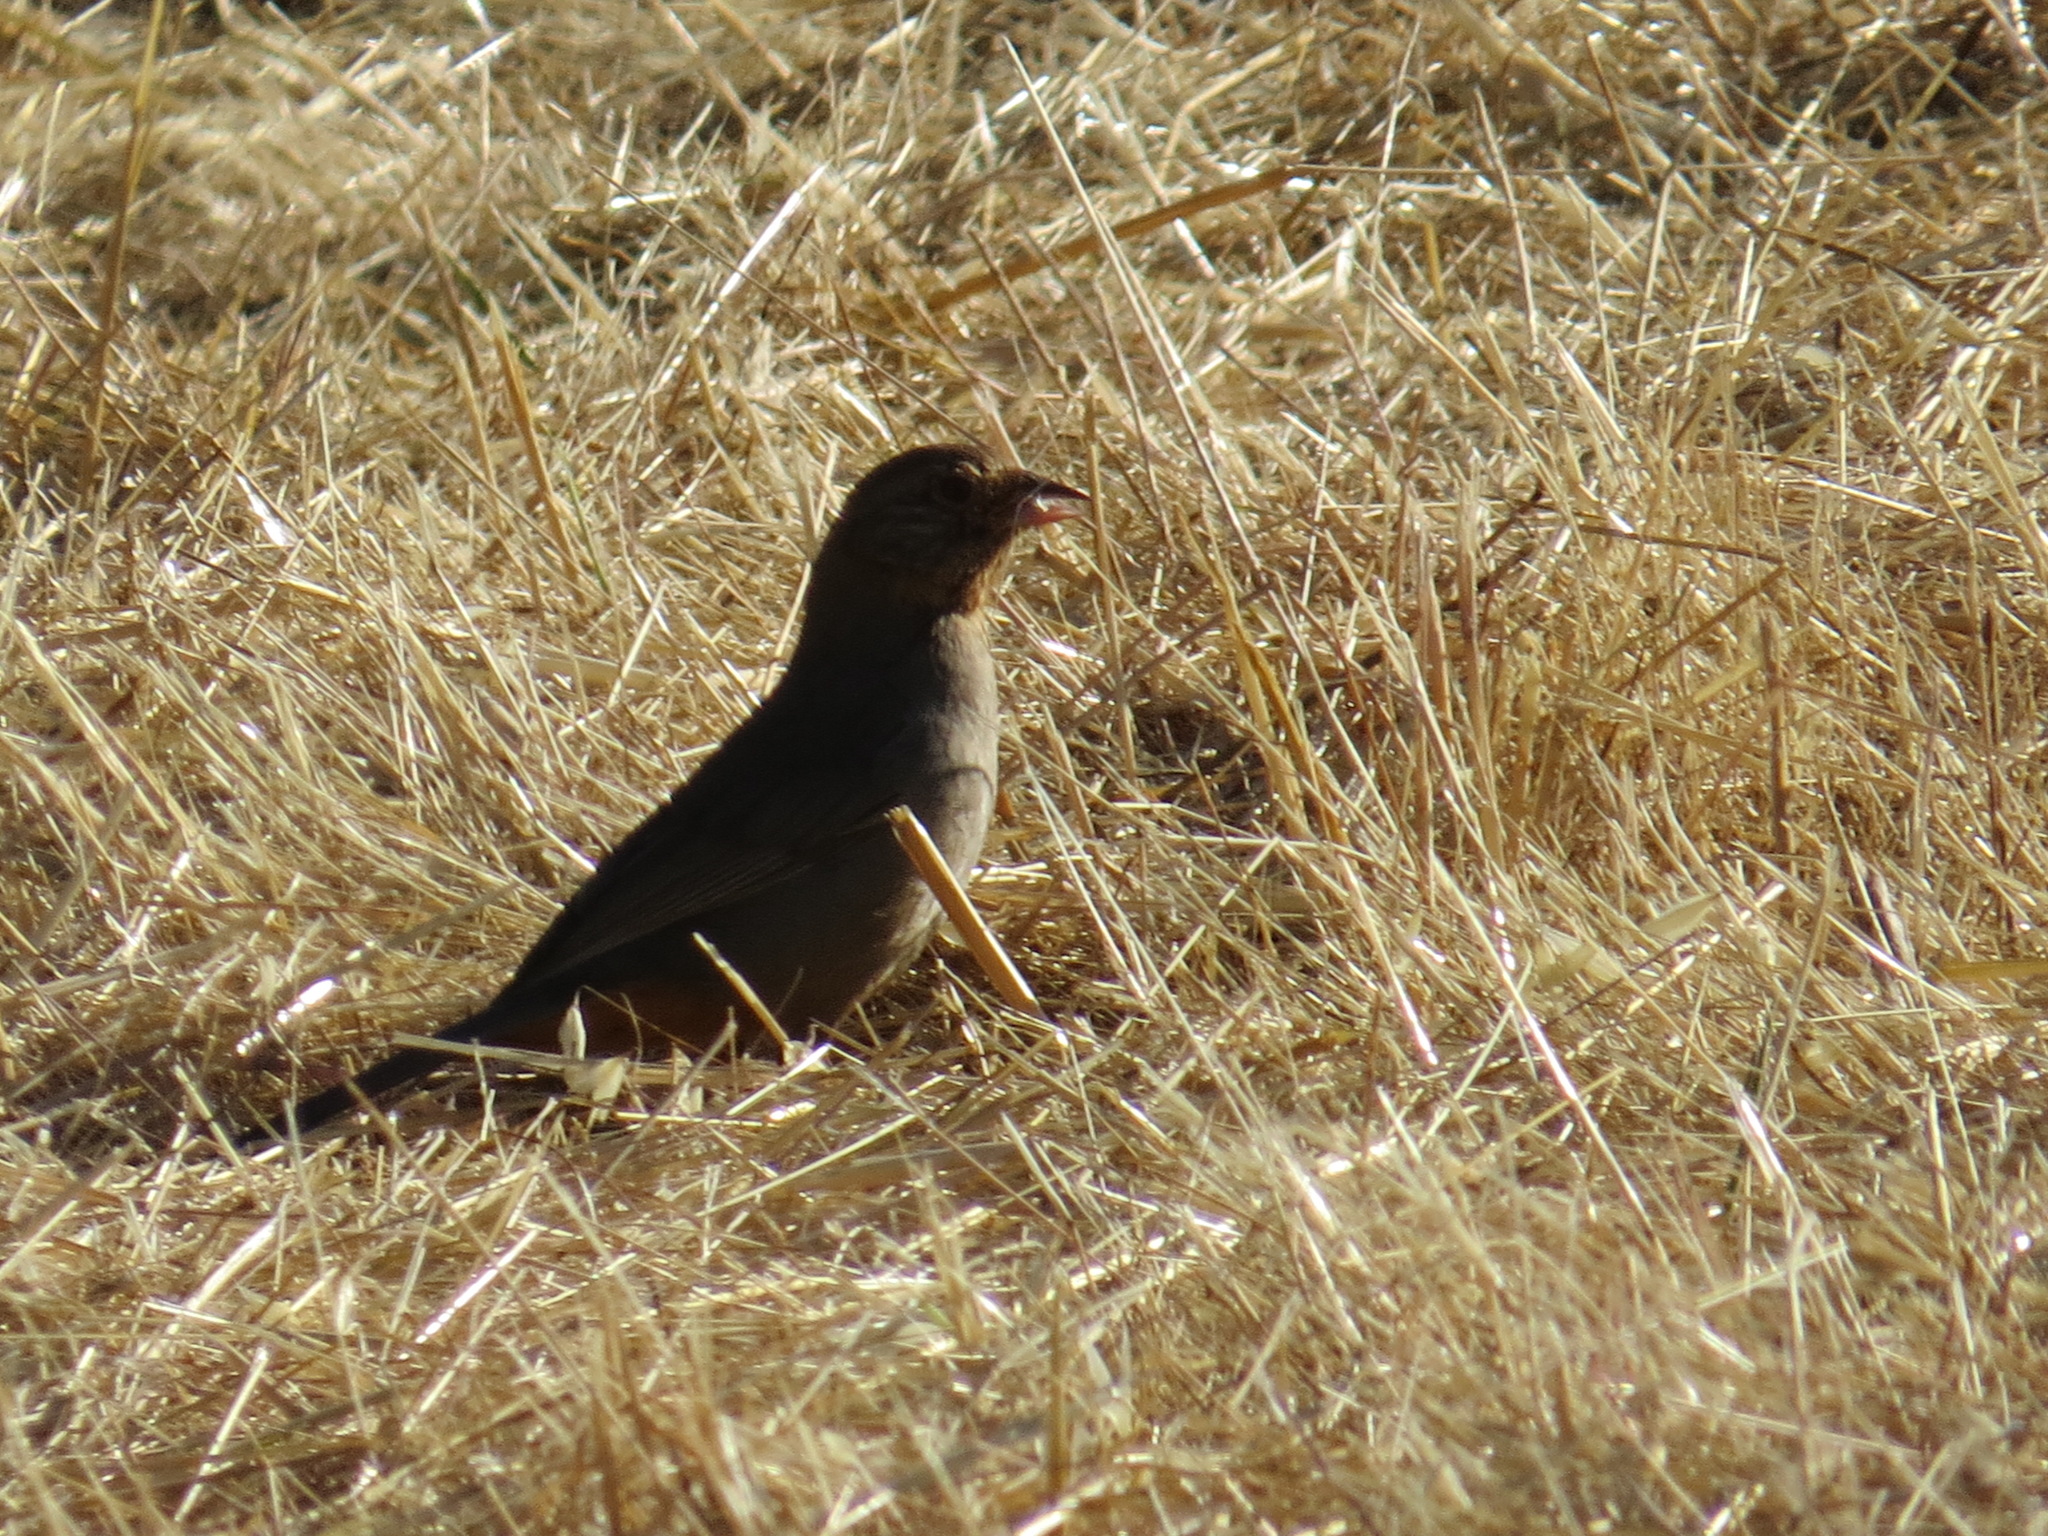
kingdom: Animalia
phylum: Chordata
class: Aves
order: Passeriformes
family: Passerellidae
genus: Melozone
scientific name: Melozone crissalis
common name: California towhee
